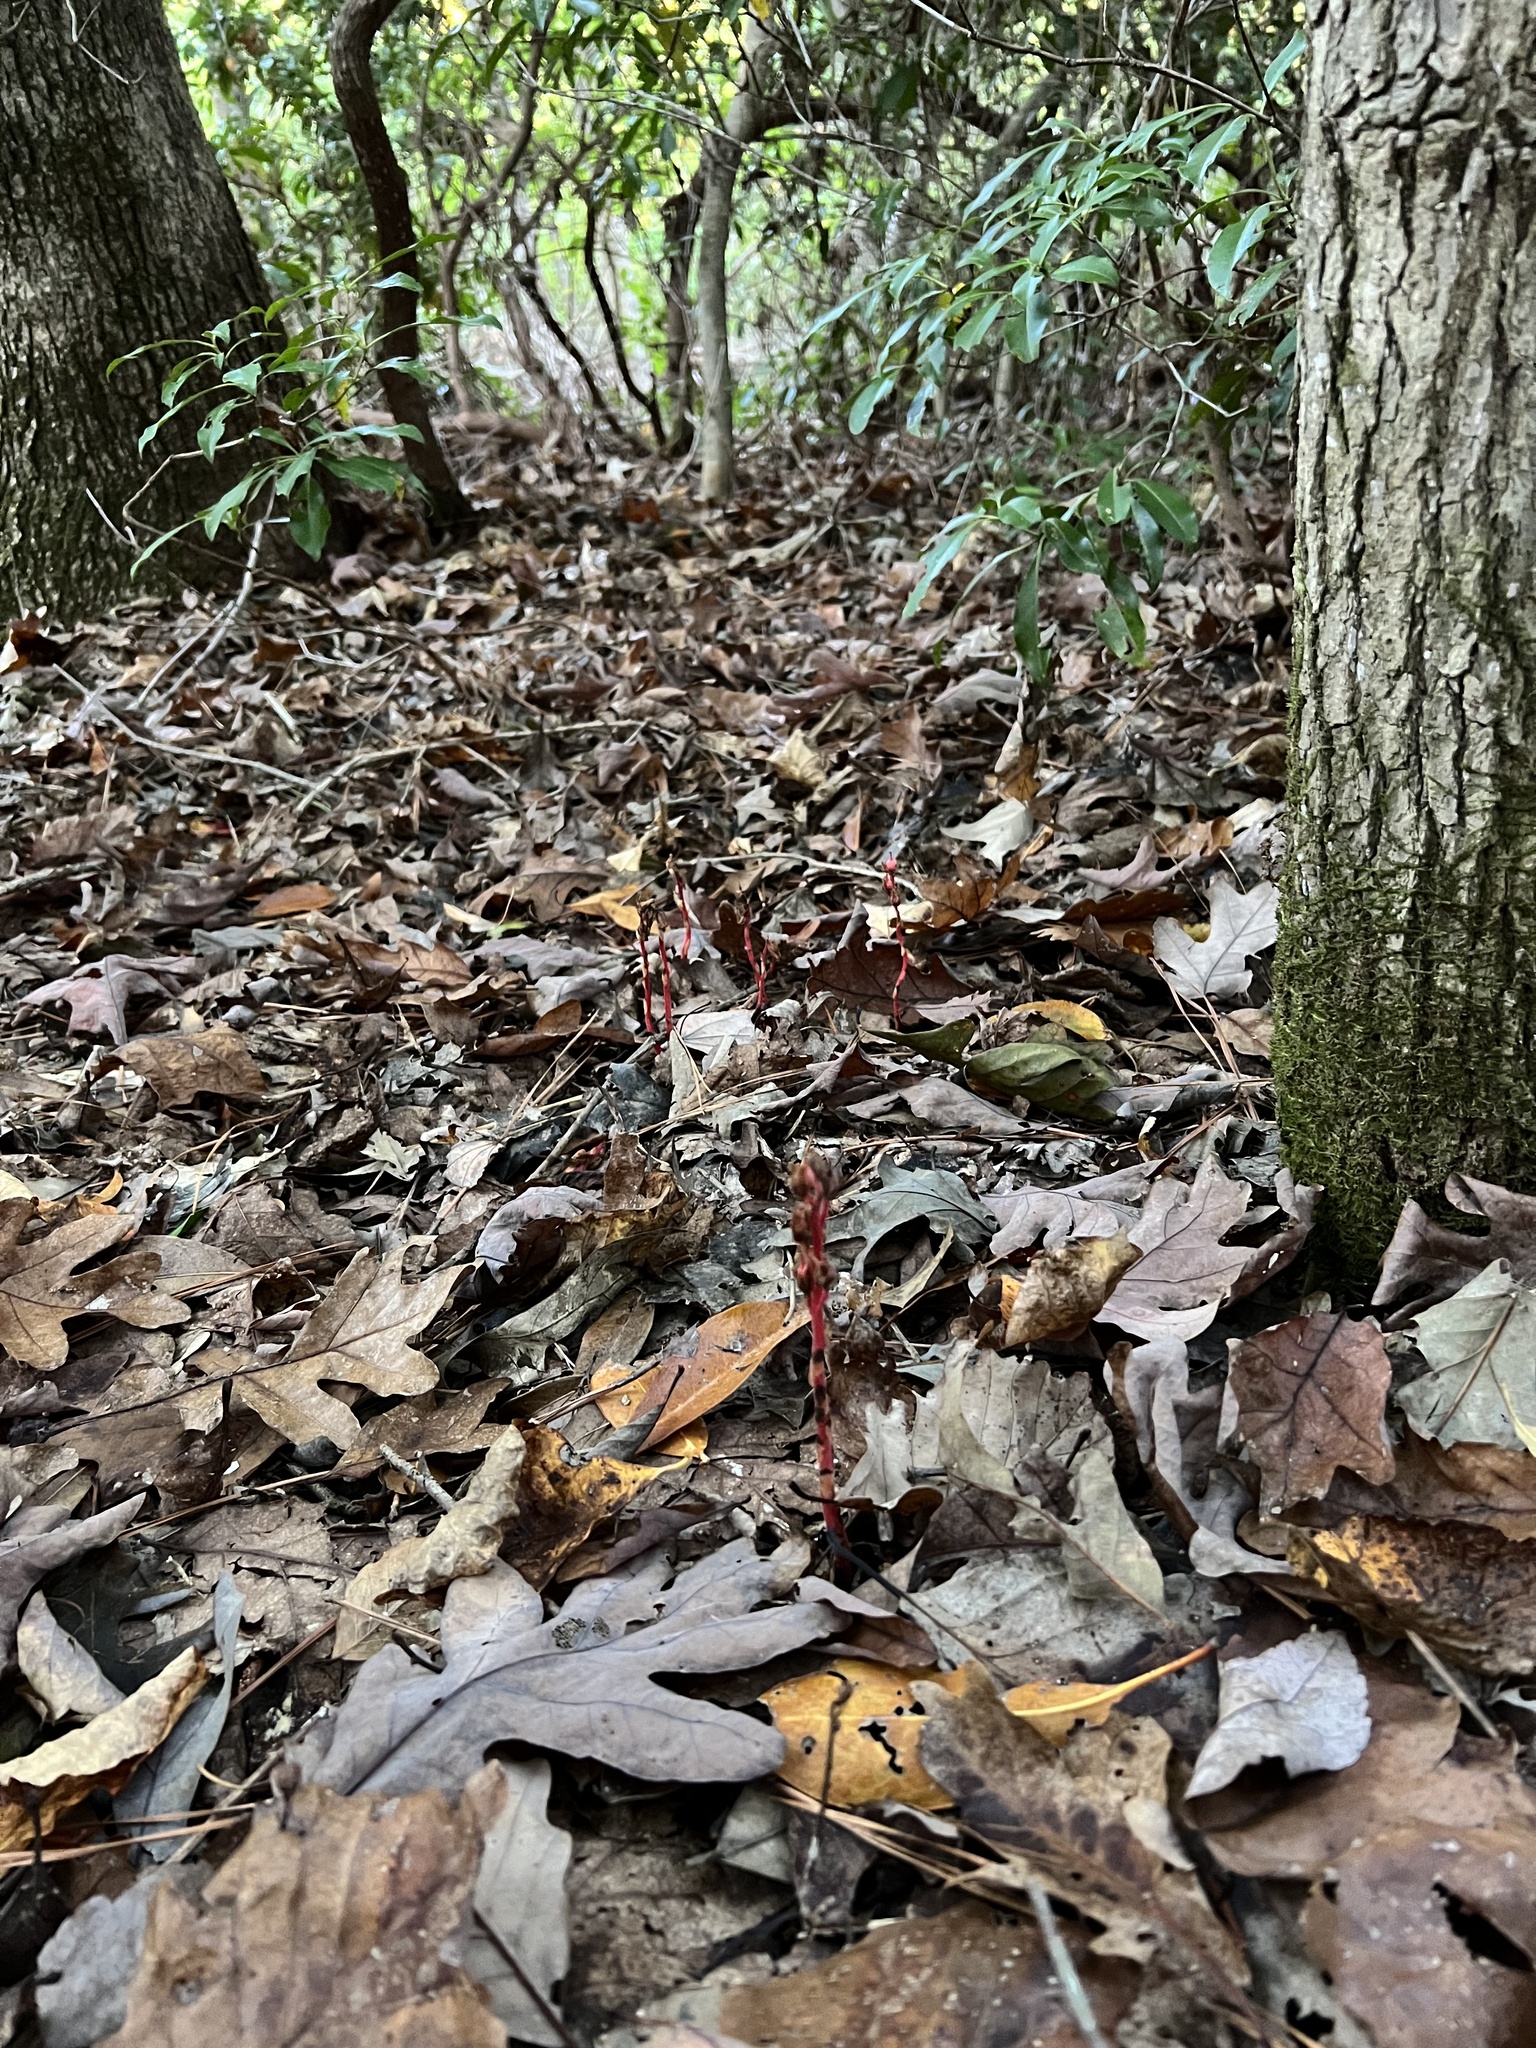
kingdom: Plantae
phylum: Tracheophyta
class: Magnoliopsida
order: Ericales
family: Ericaceae
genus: Hypopitys
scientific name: Hypopitys monotropa
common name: Yellow bird's-nest
